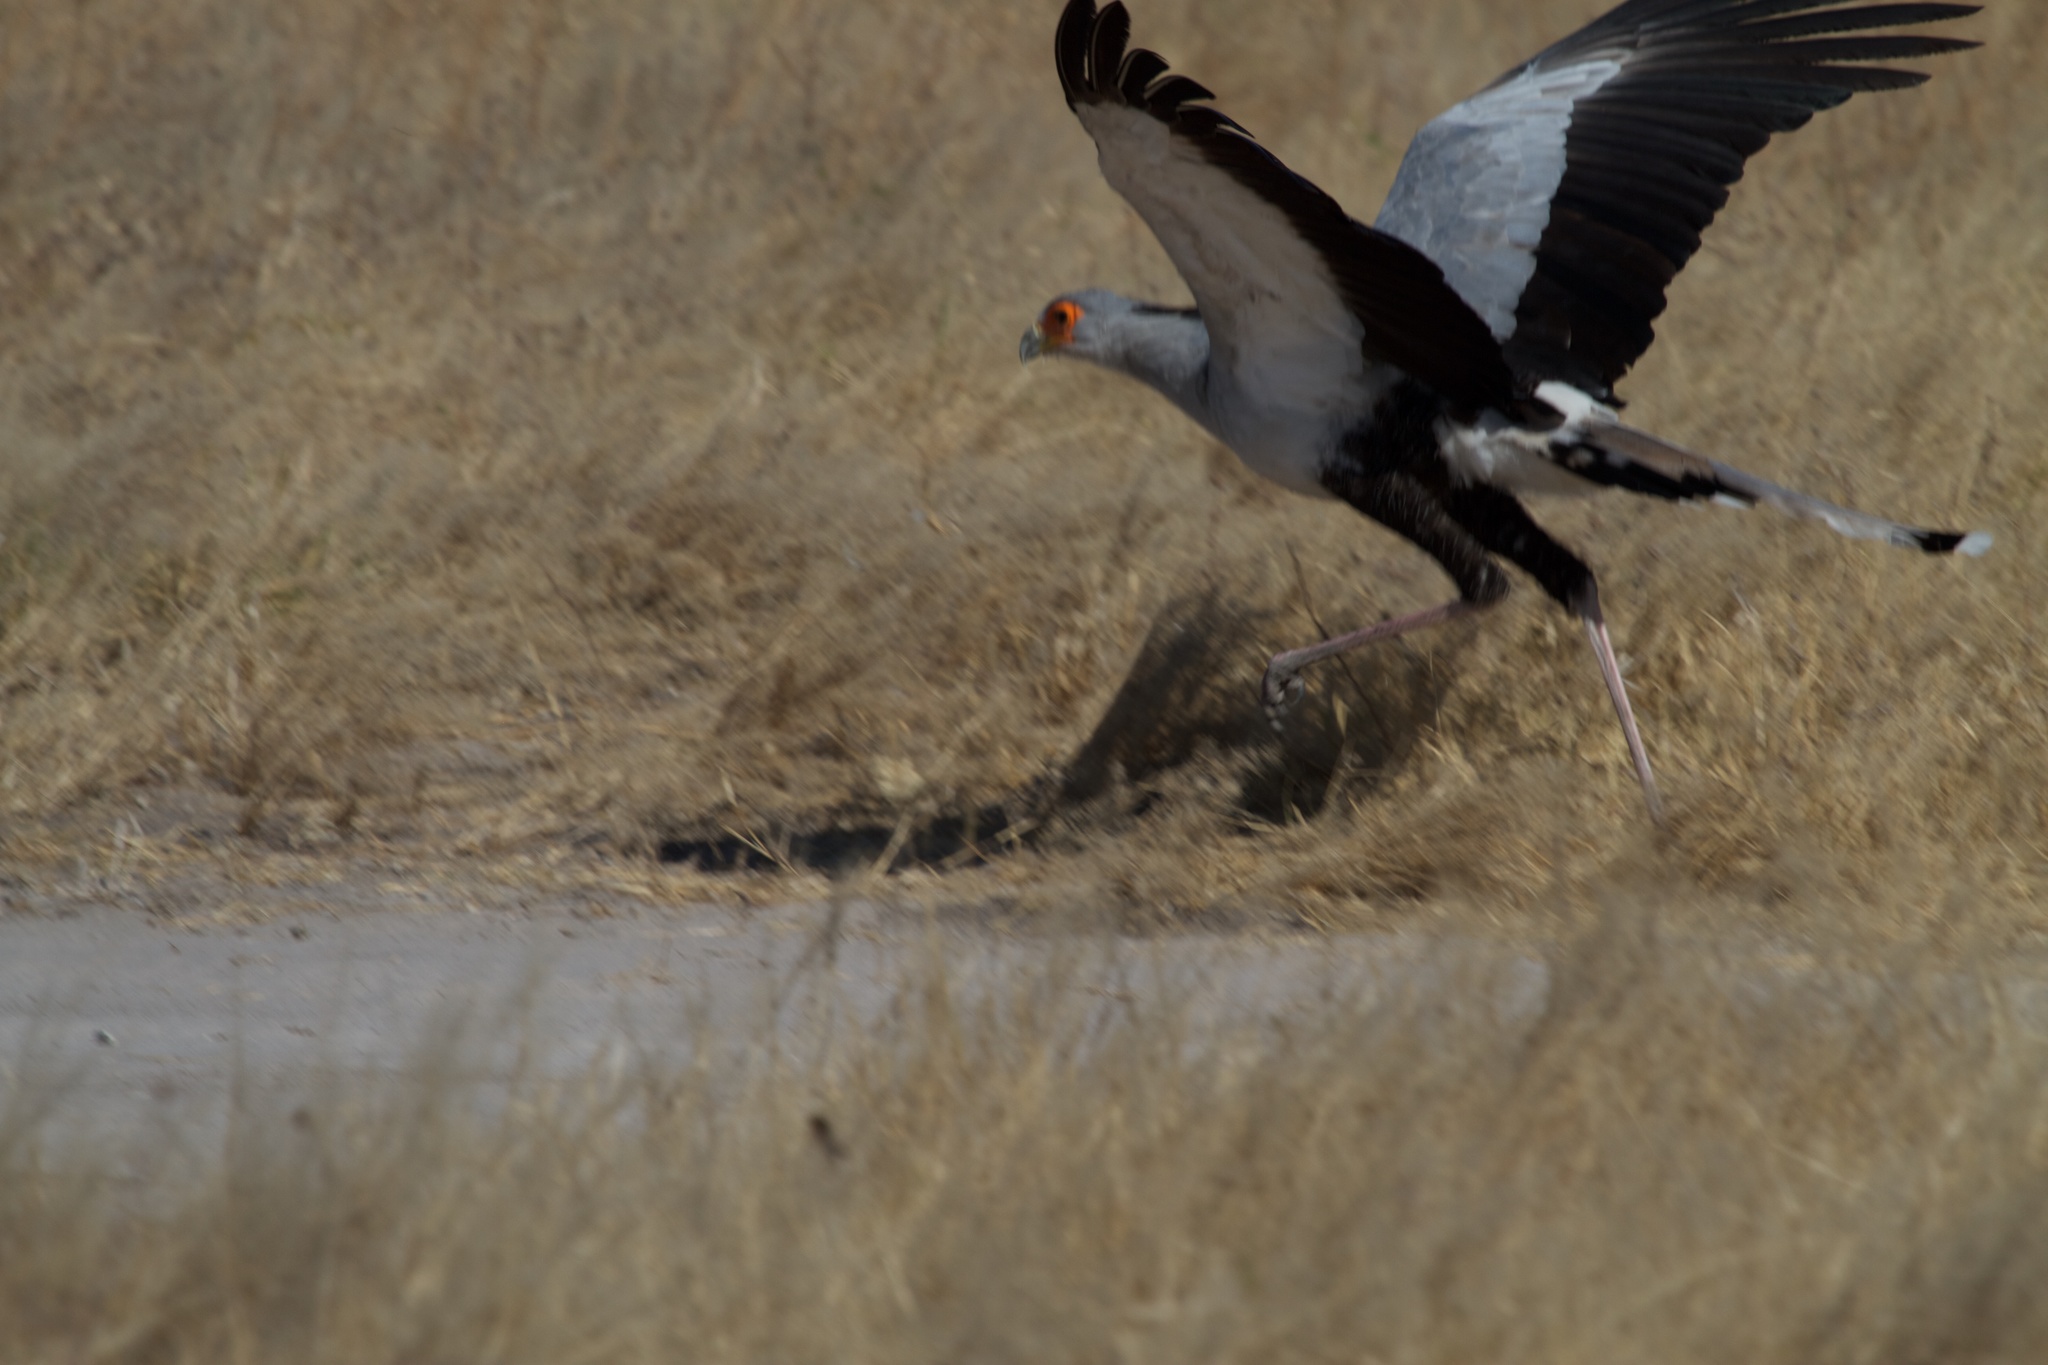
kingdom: Animalia
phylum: Chordata
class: Aves
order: Accipitriformes
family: Sagittariidae
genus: Sagittarius
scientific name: Sagittarius serpentarius
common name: Secretarybird
